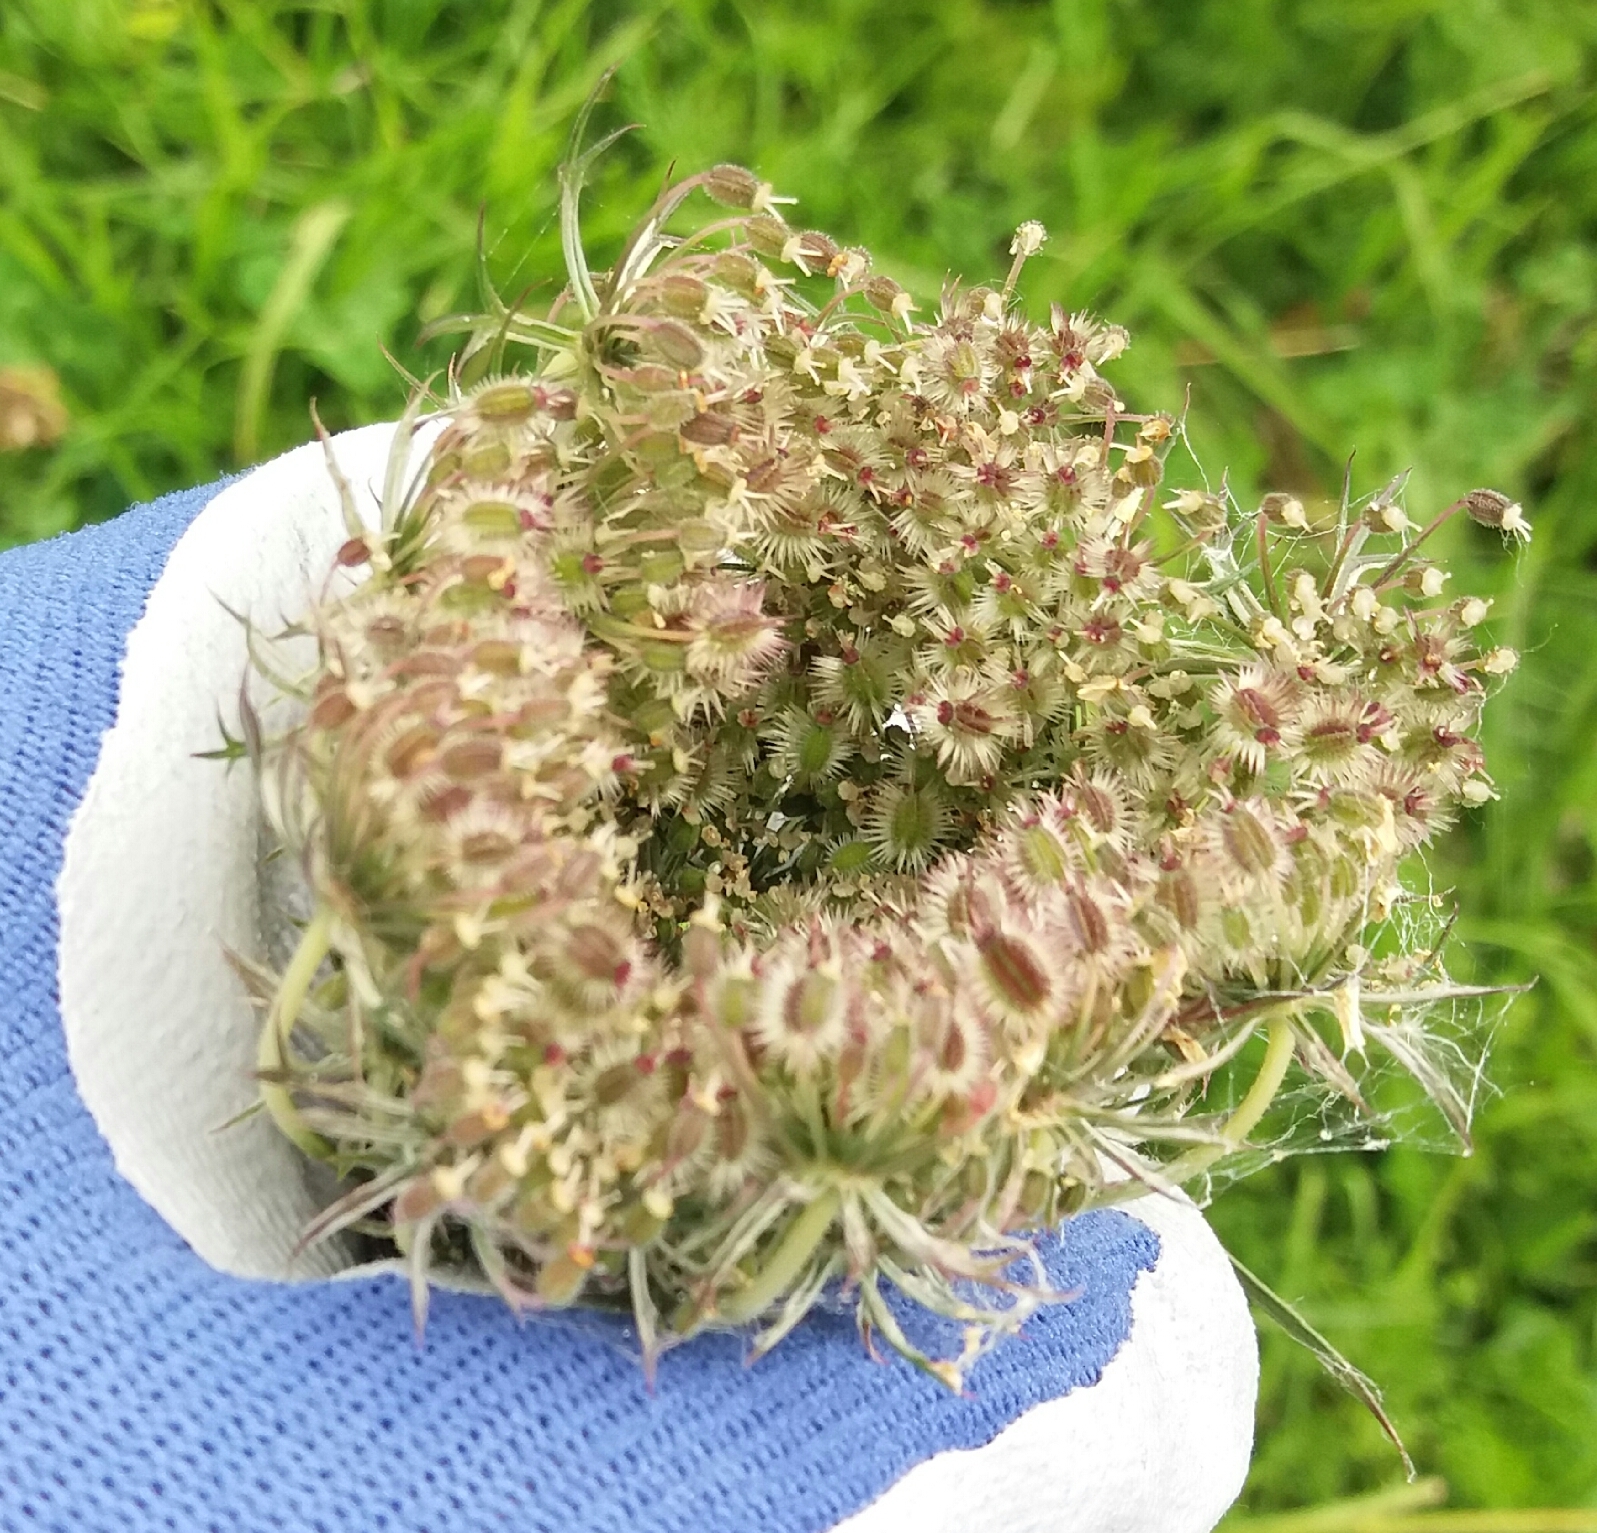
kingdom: Plantae
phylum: Tracheophyta
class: Magnoliopsida
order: Apiales
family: Apiaceae
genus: Daucus
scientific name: Daucus carota
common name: Wild carrot
